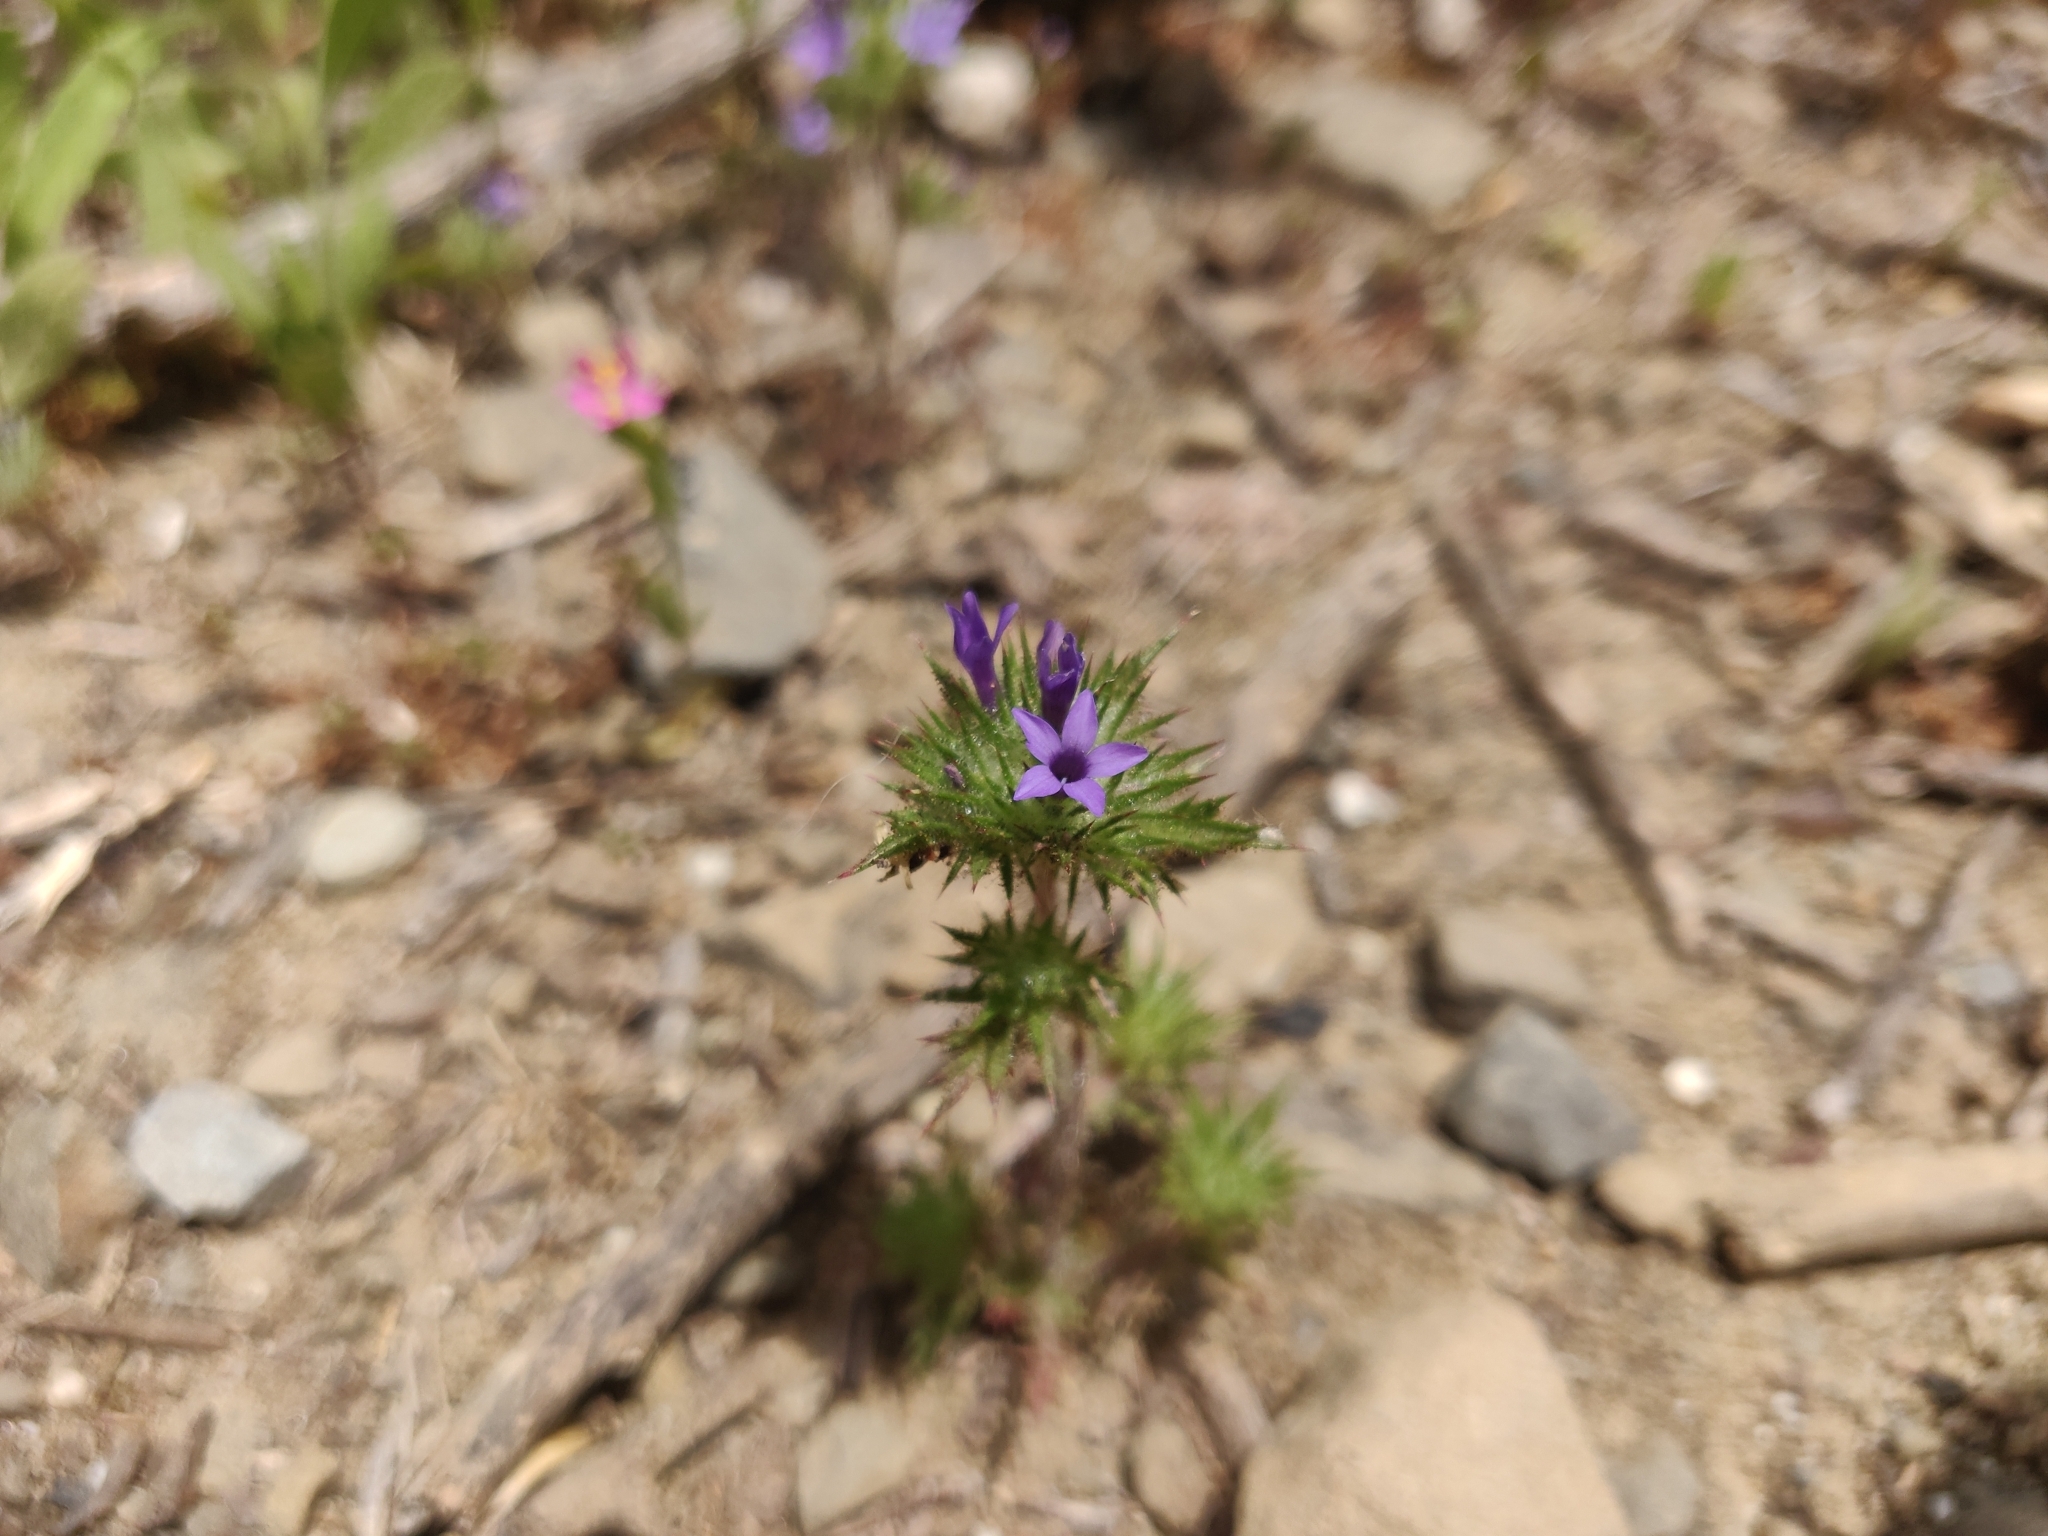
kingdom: Plantae
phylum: Tracheophyta
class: Magnoliopsida
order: Ericales
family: Polemoniaceae
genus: Navarretia
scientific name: Navarretia squarrosa
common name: Skunkweed
